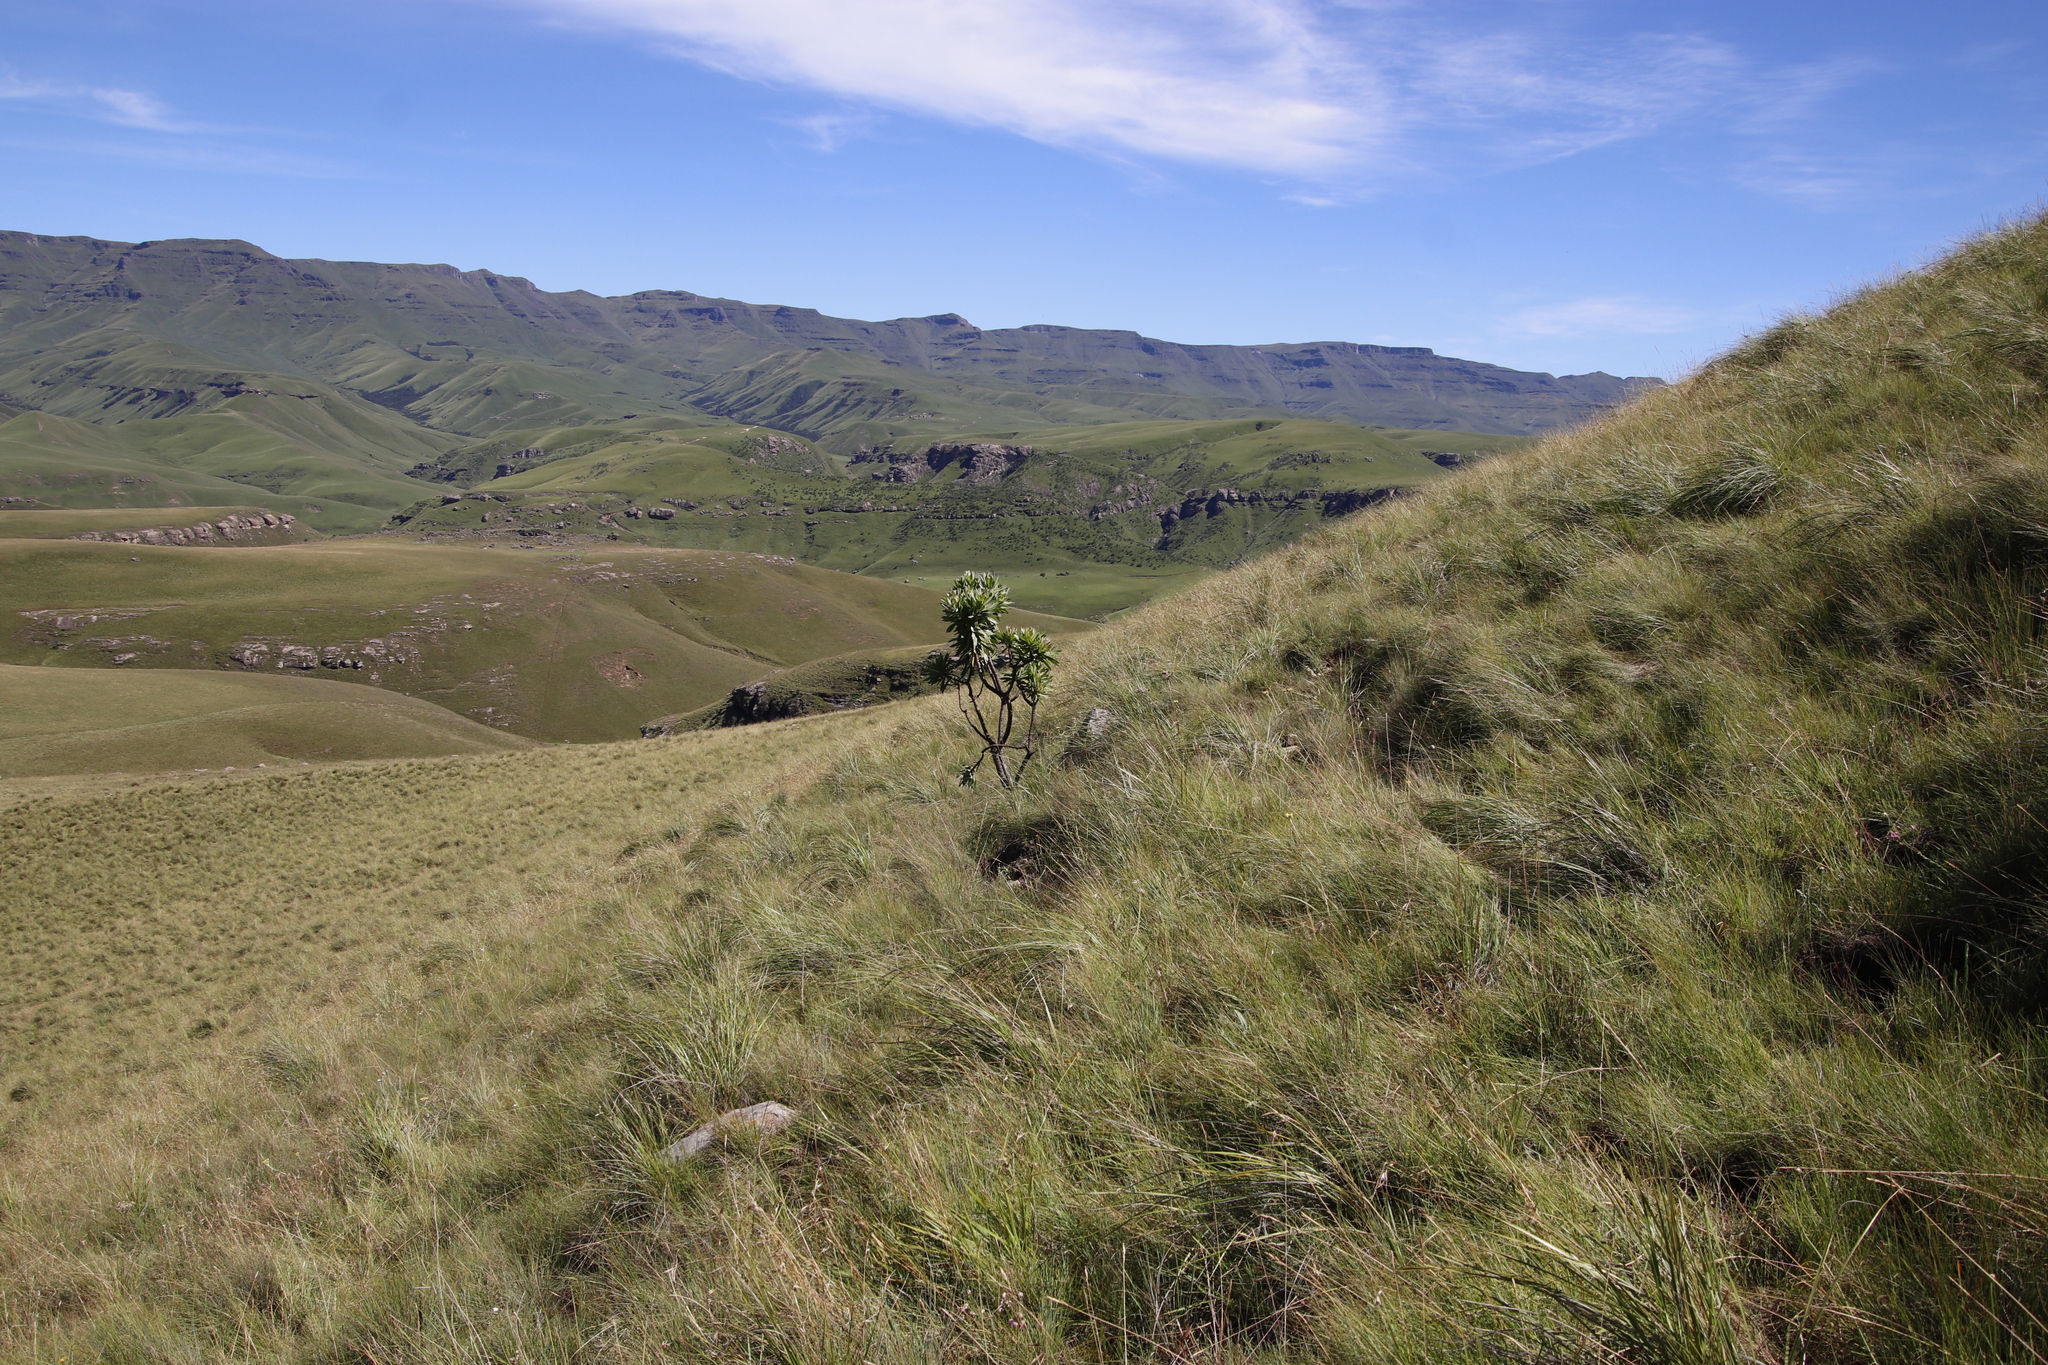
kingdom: Plantae
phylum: Tracheophyta
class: Magnoliopsida
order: Proteales
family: Proteaceae
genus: Protea
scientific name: Protea roupelliae
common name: Silver sugarbush
